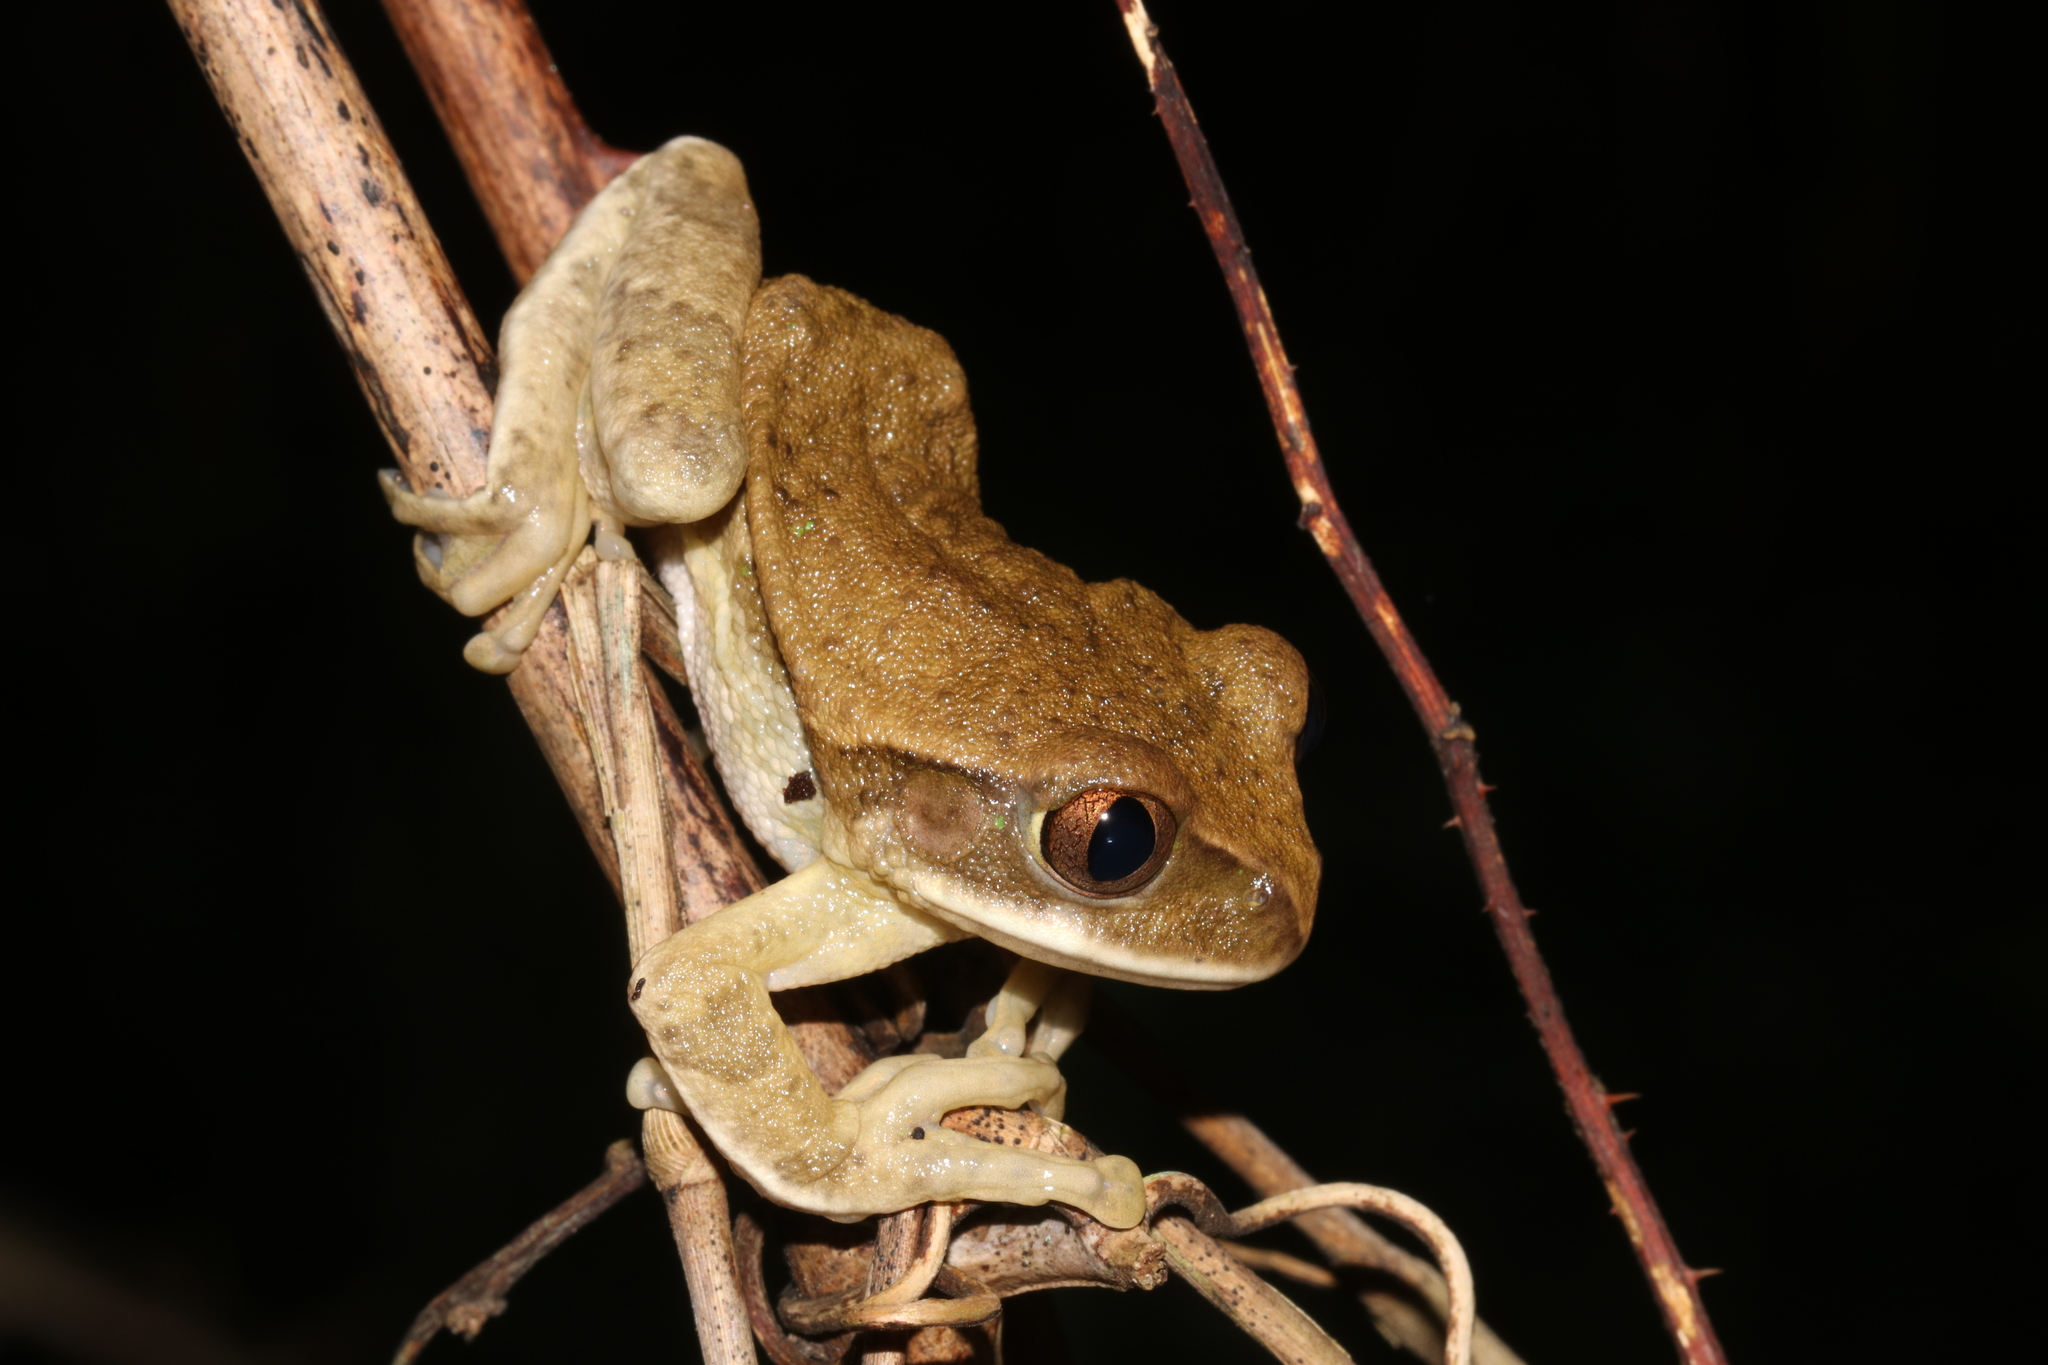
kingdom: Animalia
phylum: Chordata
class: Amphibia
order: Anura
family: Arthroleptidae
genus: Leptopelis
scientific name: Leptopelis flavomaculatus
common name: Johnston's treefrog
